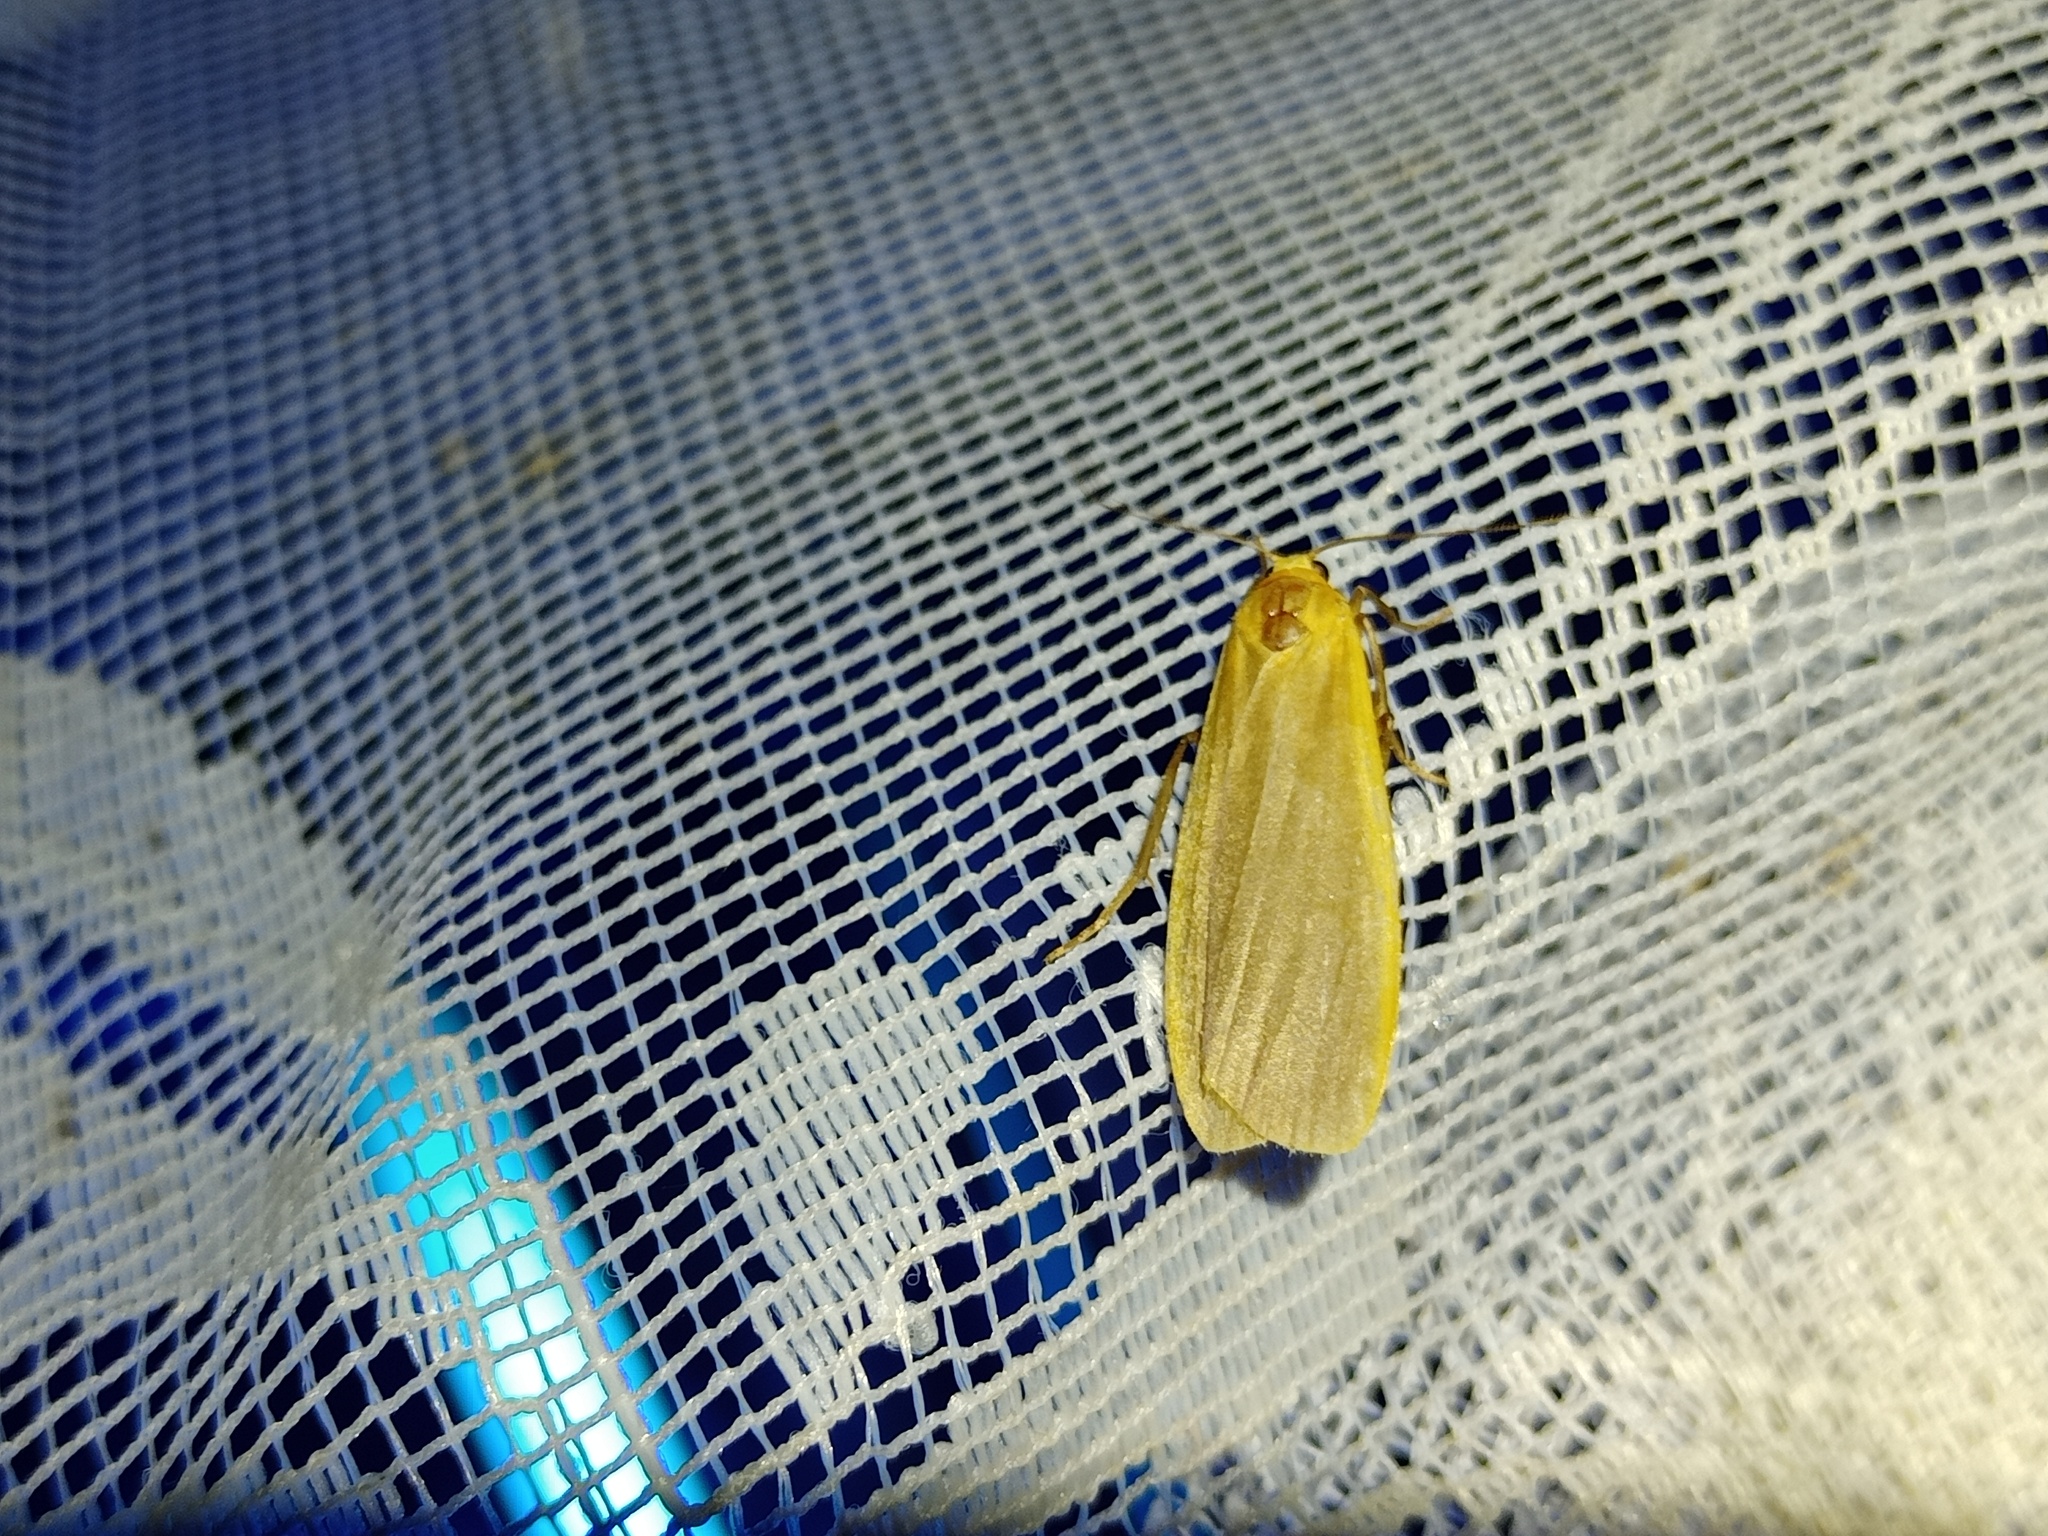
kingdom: Animalia
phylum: Arthropoda
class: Insecta
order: Lepidoptera
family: Erebidae
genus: Katha
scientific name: Katha depressa
